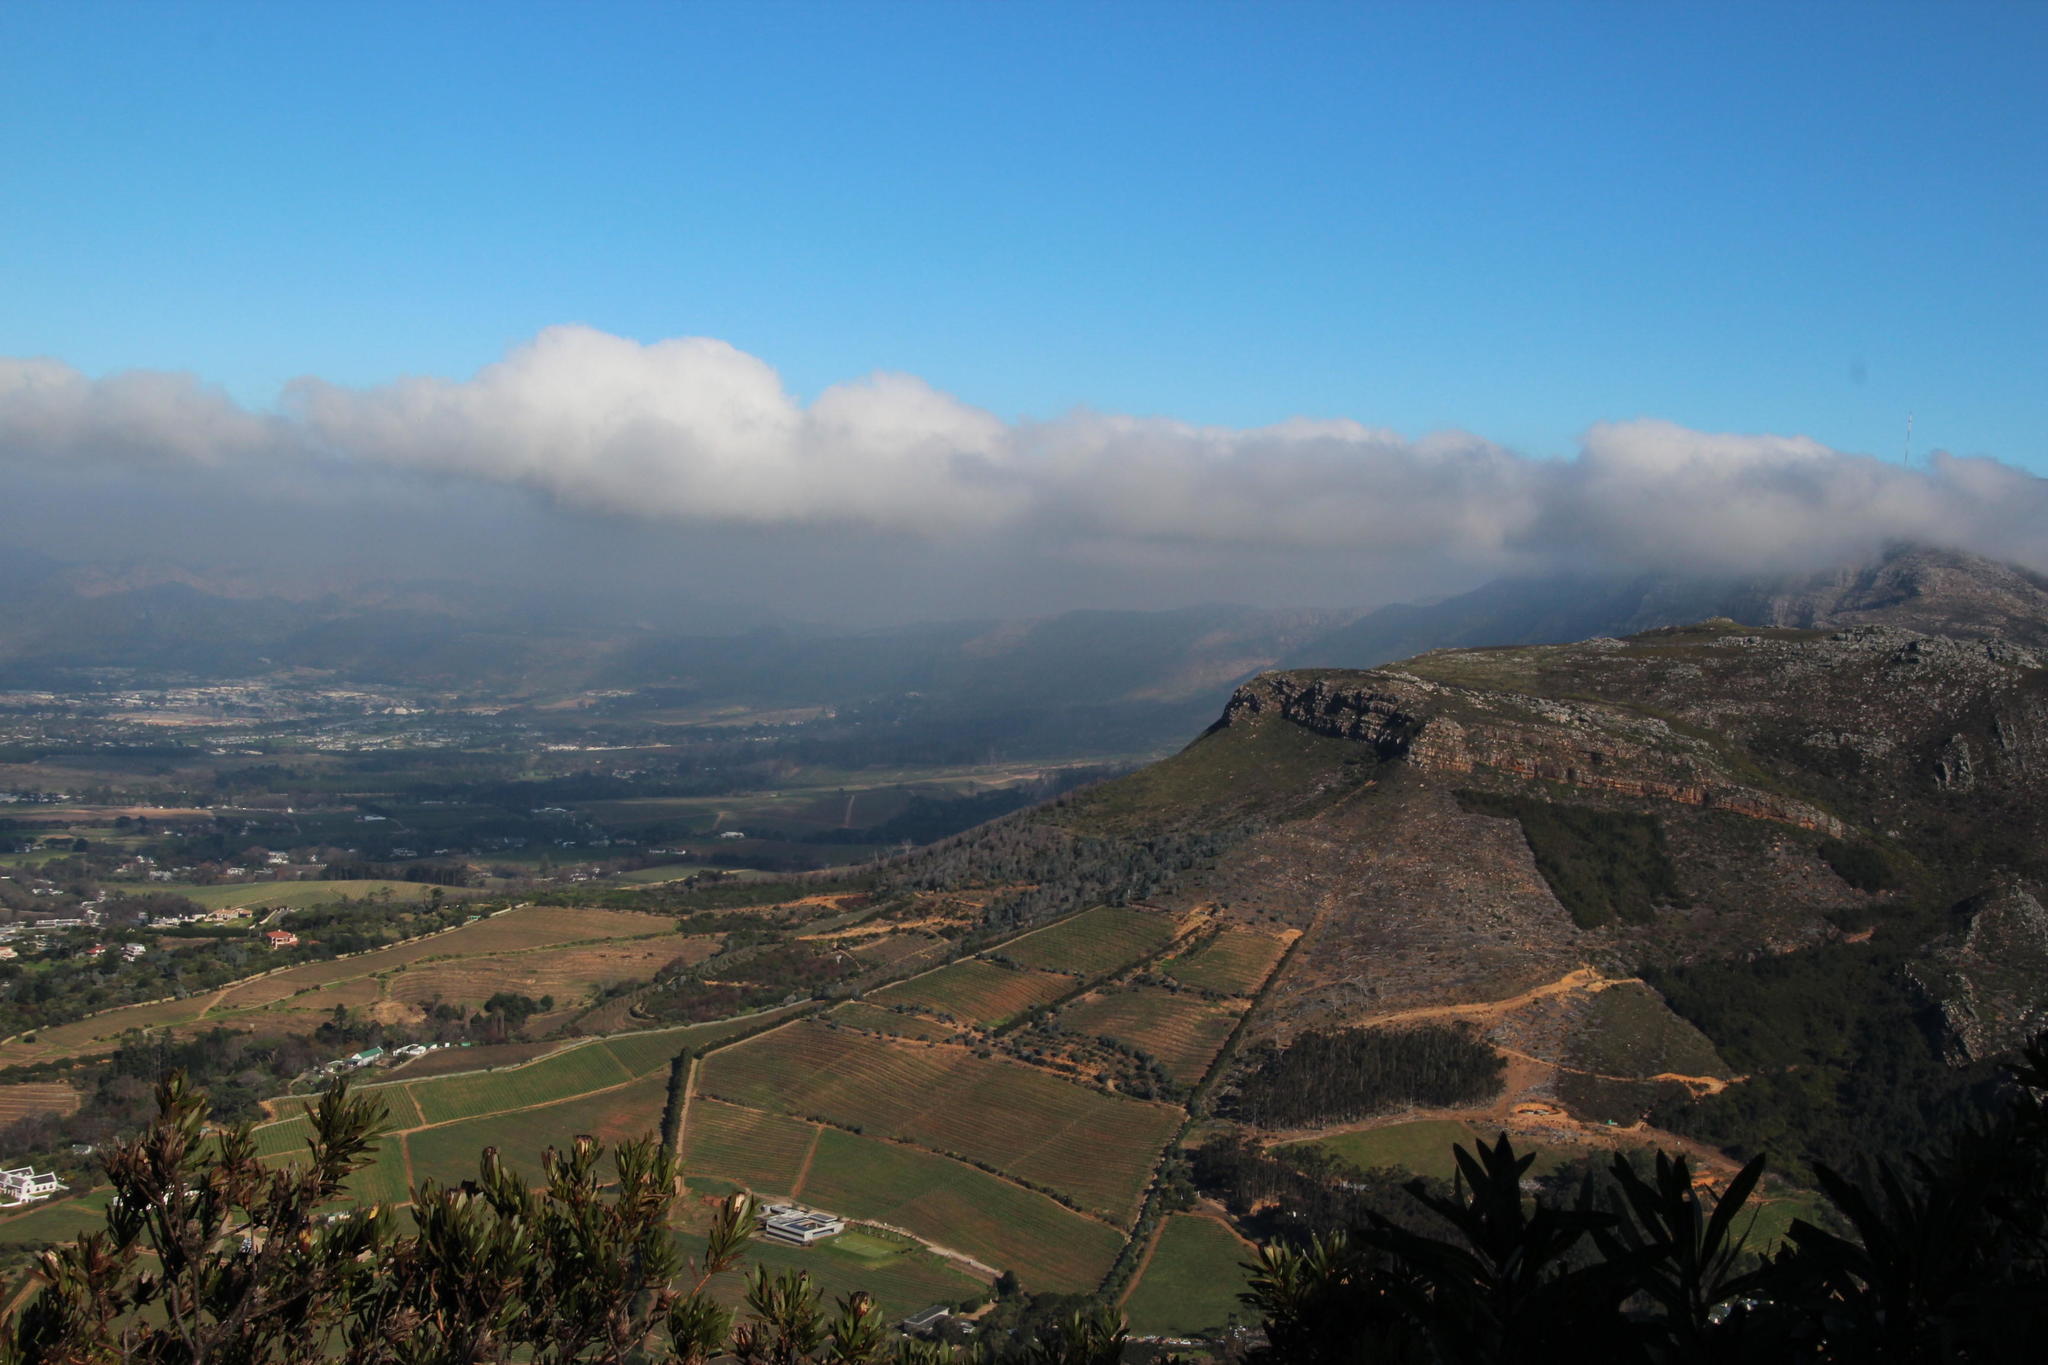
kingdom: Plantae
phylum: Tracheophyta
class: Magnoliopsida
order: Proteales
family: Proteaceae
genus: Protea
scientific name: Protea lepidocarpodendron
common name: Black-bearded protea
